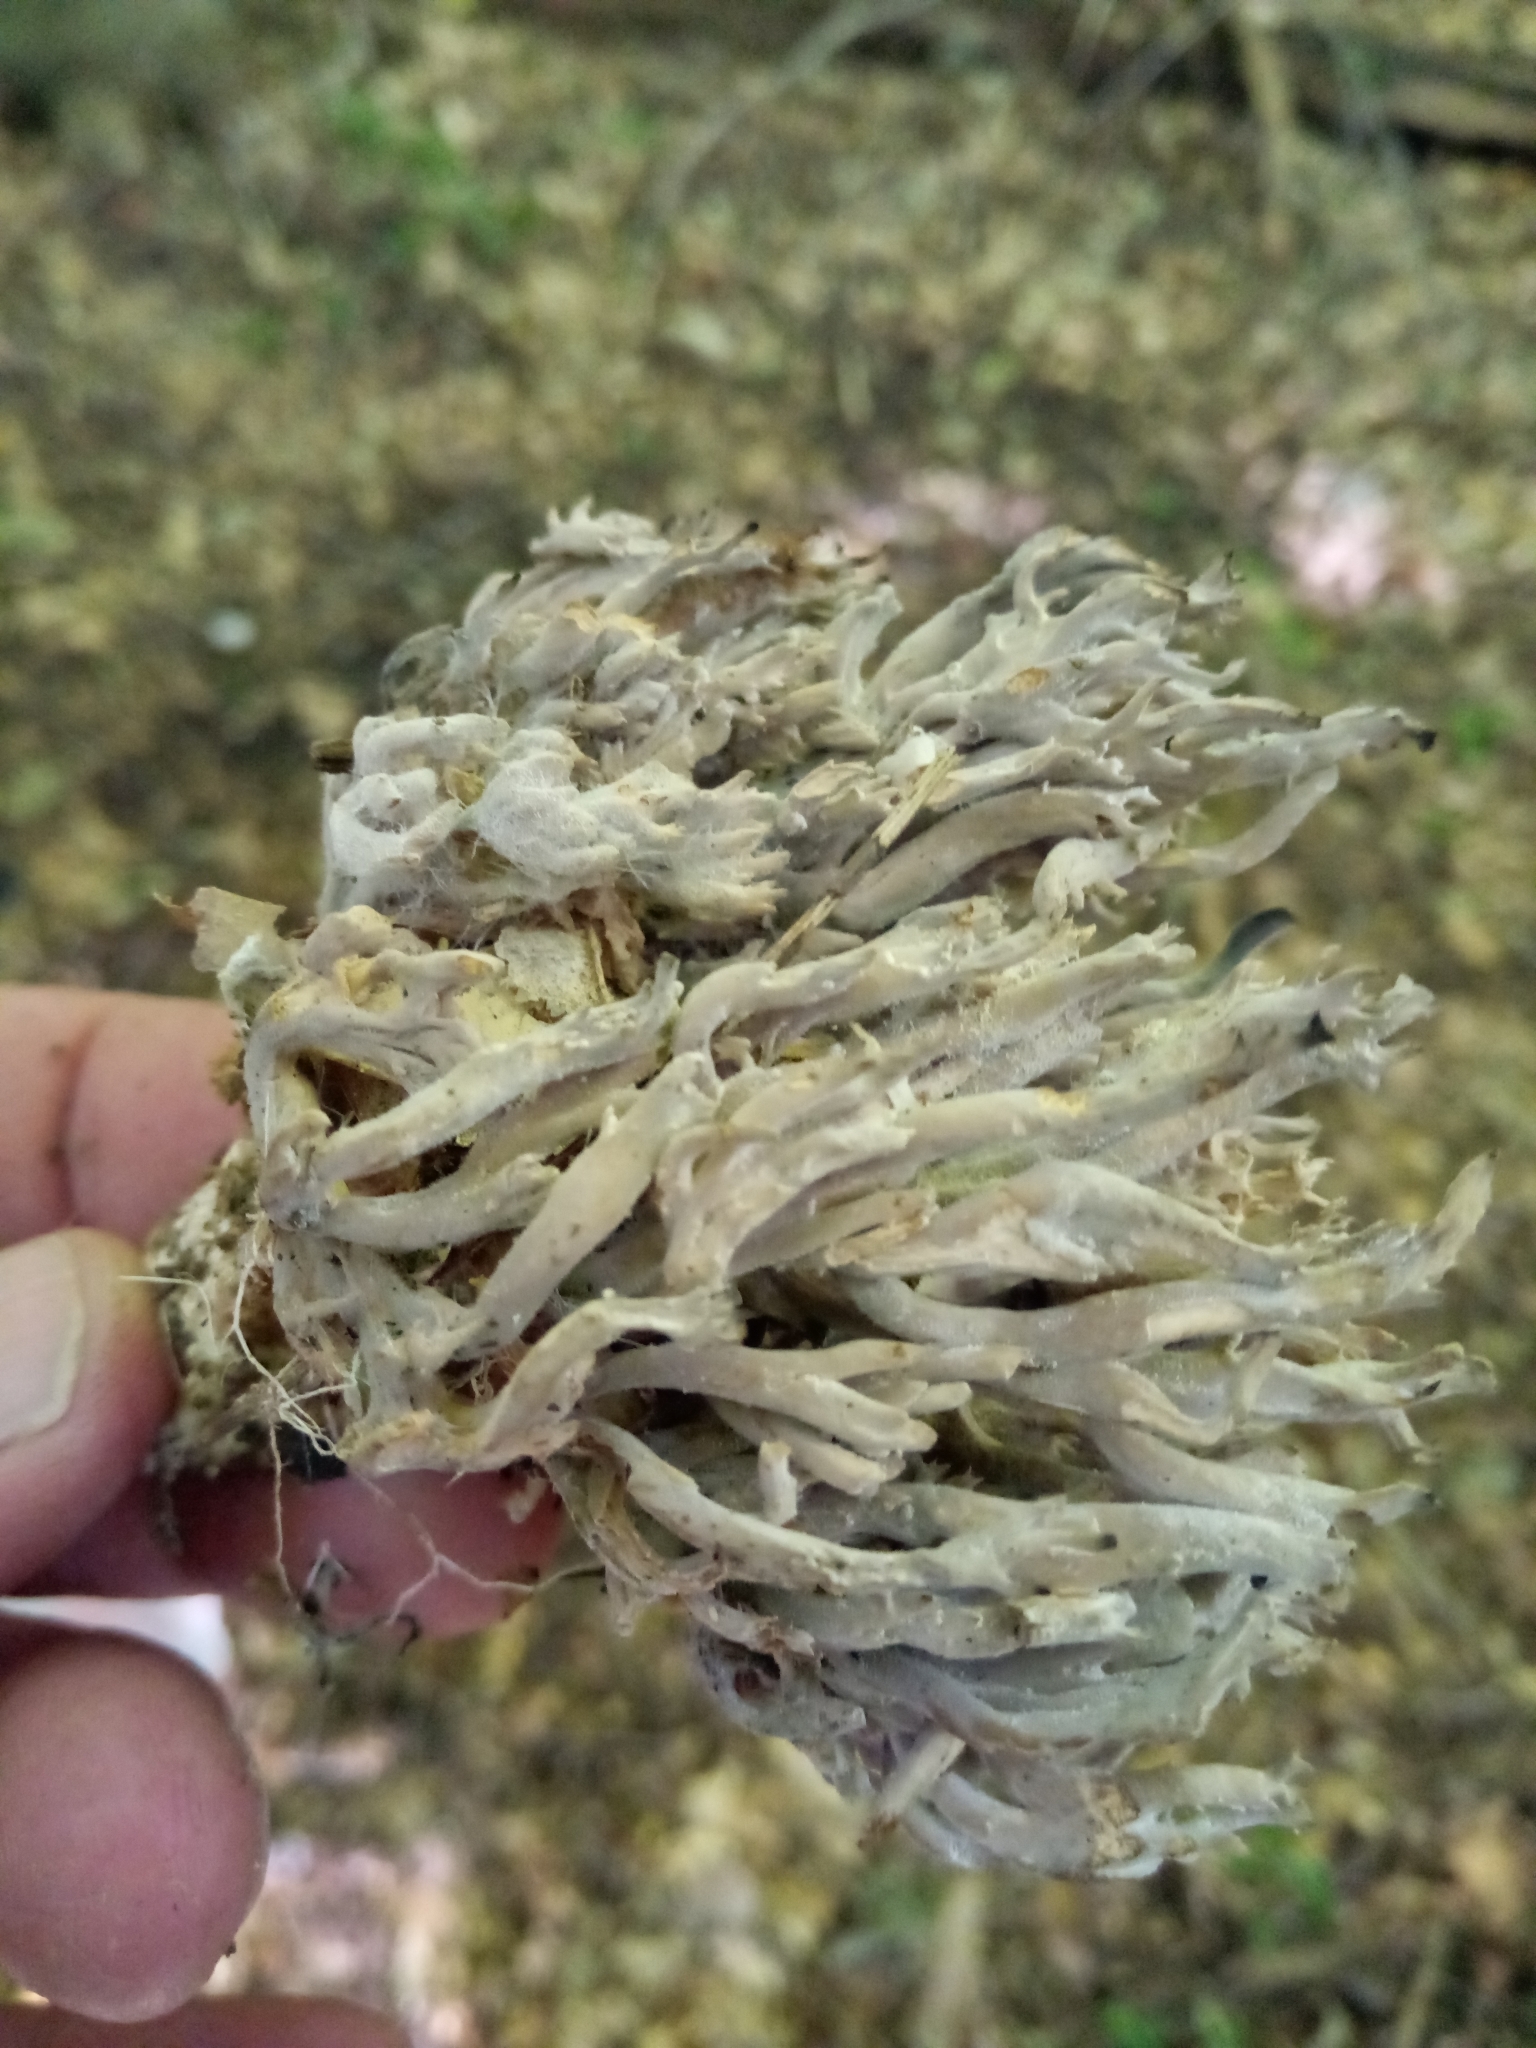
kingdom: Fungi
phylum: Ascomycota
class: Sordariomycetes
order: Sordariales
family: Helminthosphaeriaceae
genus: Helminthosphaeria
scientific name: Helminthosphaeria clavariarum
